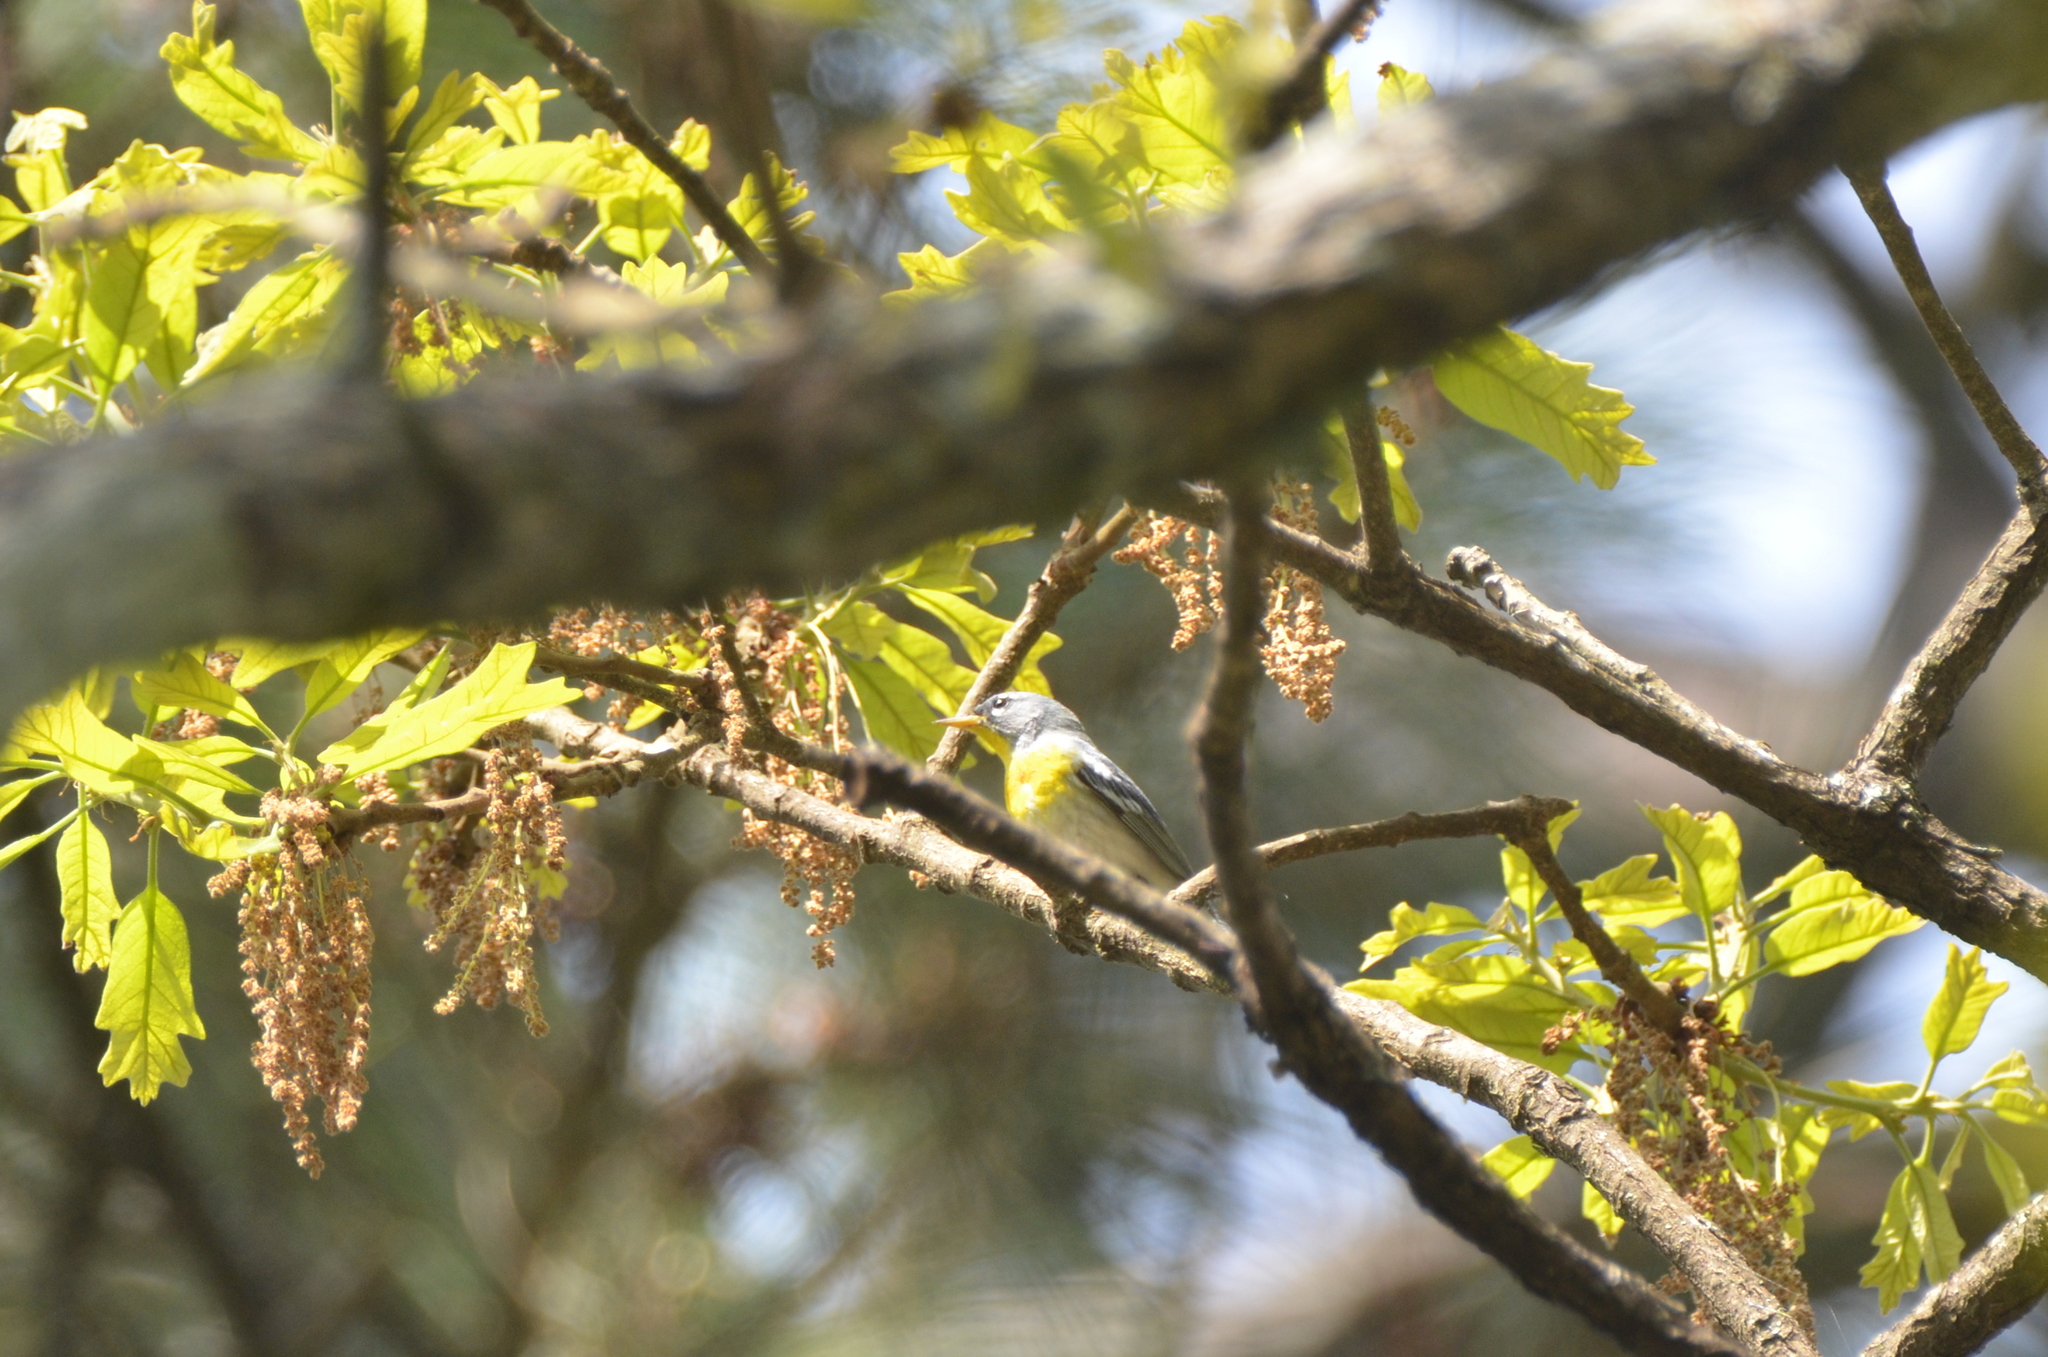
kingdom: Animalia
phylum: Chordata
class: Aves
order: Passeriformes
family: Parulidae
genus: Setophaga
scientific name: Setophaga americana
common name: Northern parula
